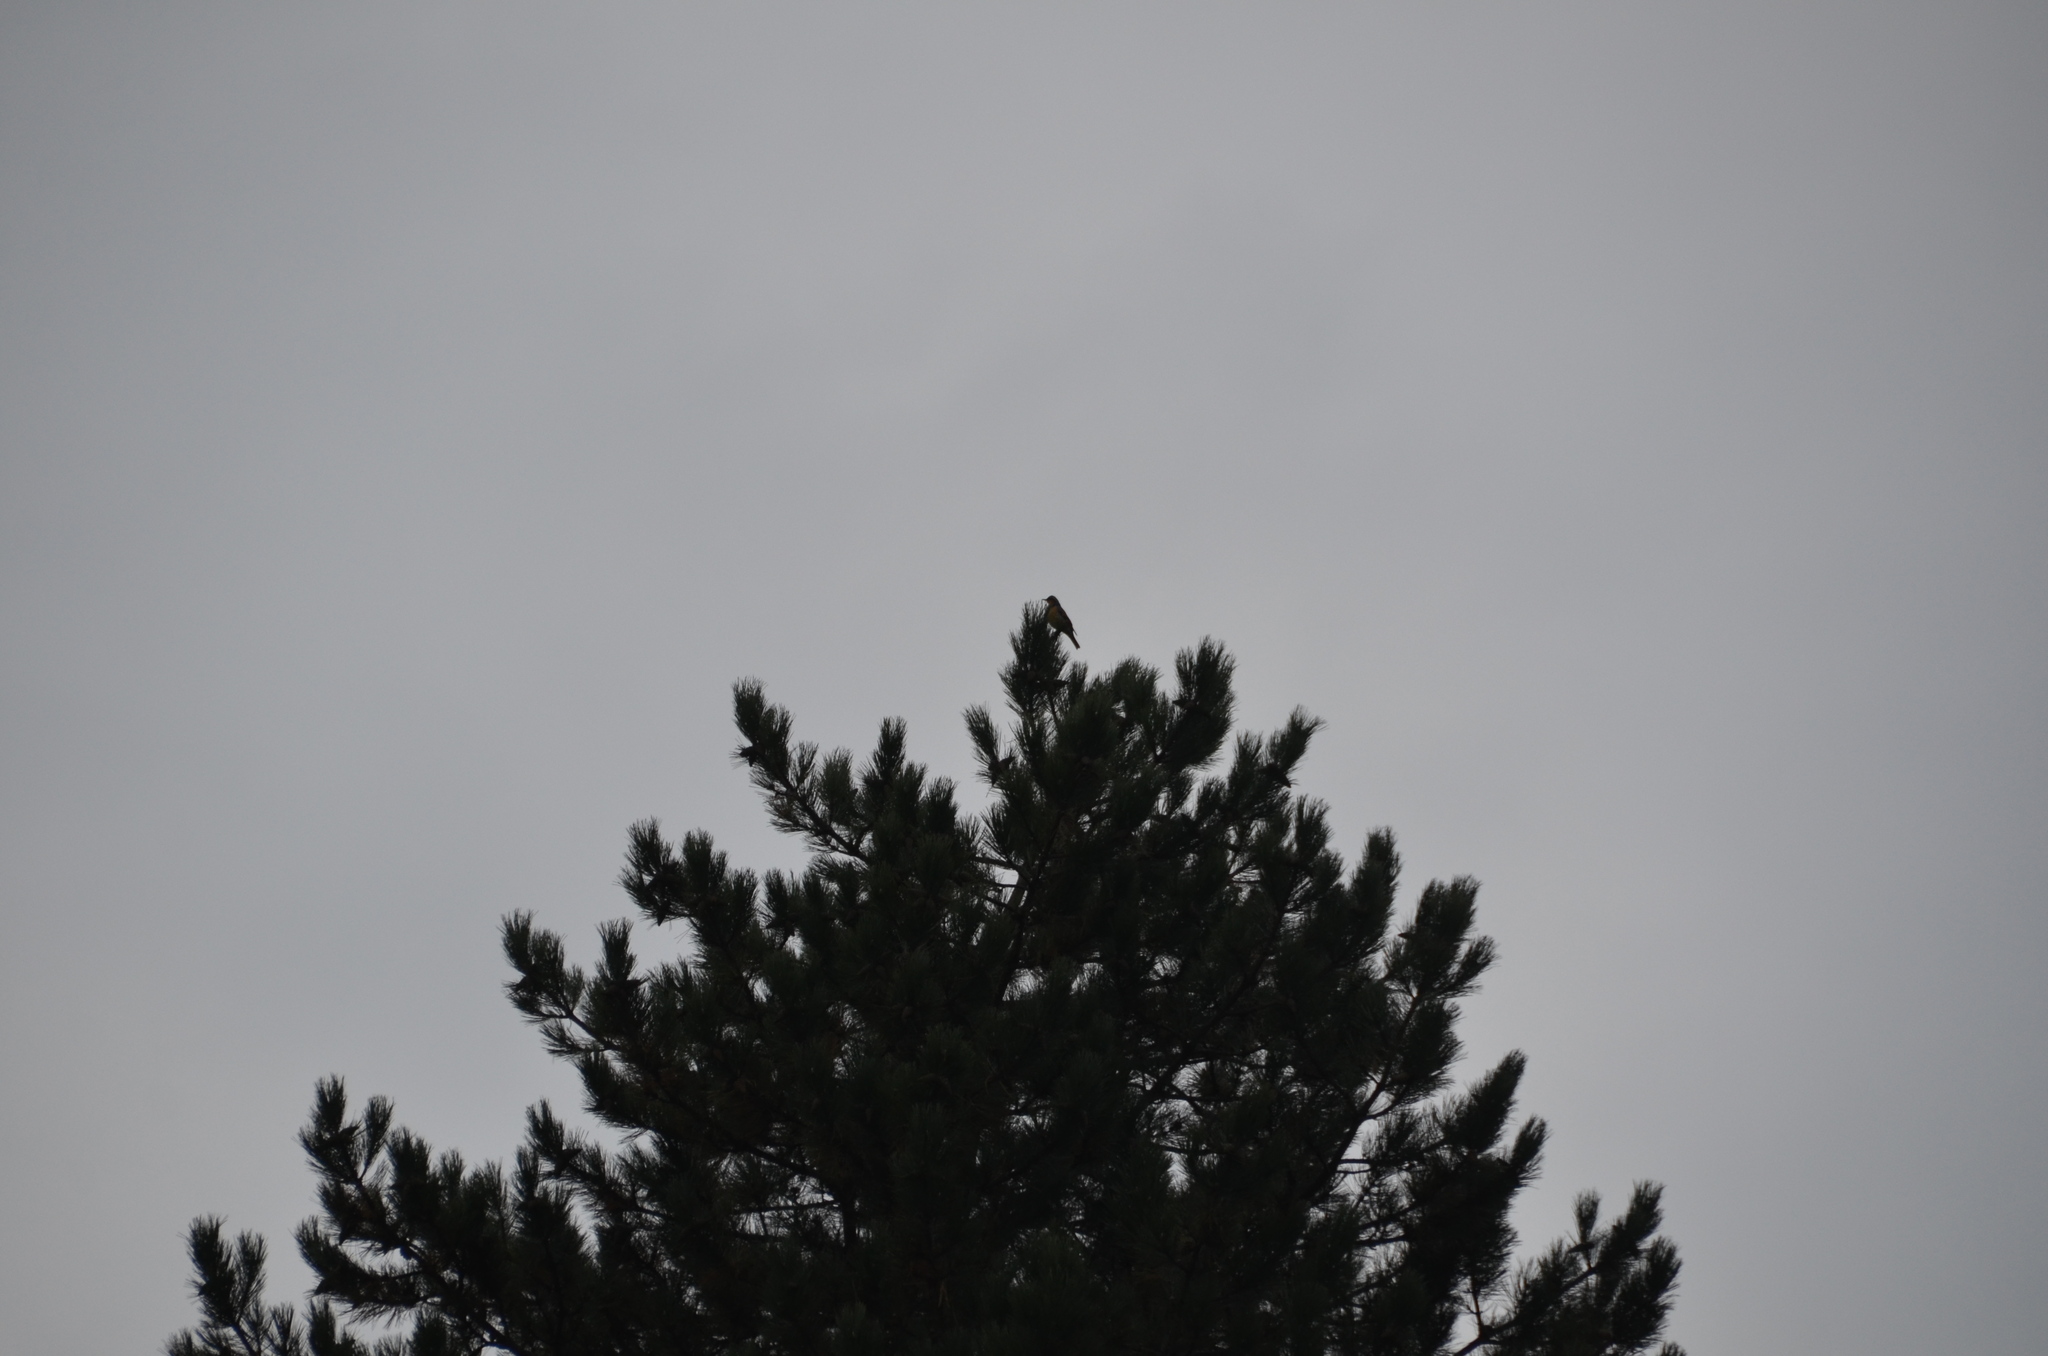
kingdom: Animalia
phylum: Chordata
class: Aves
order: Passeriformes
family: Turdidae
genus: Ixoreus
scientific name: Ixoreus naevius
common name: Varied thrush
